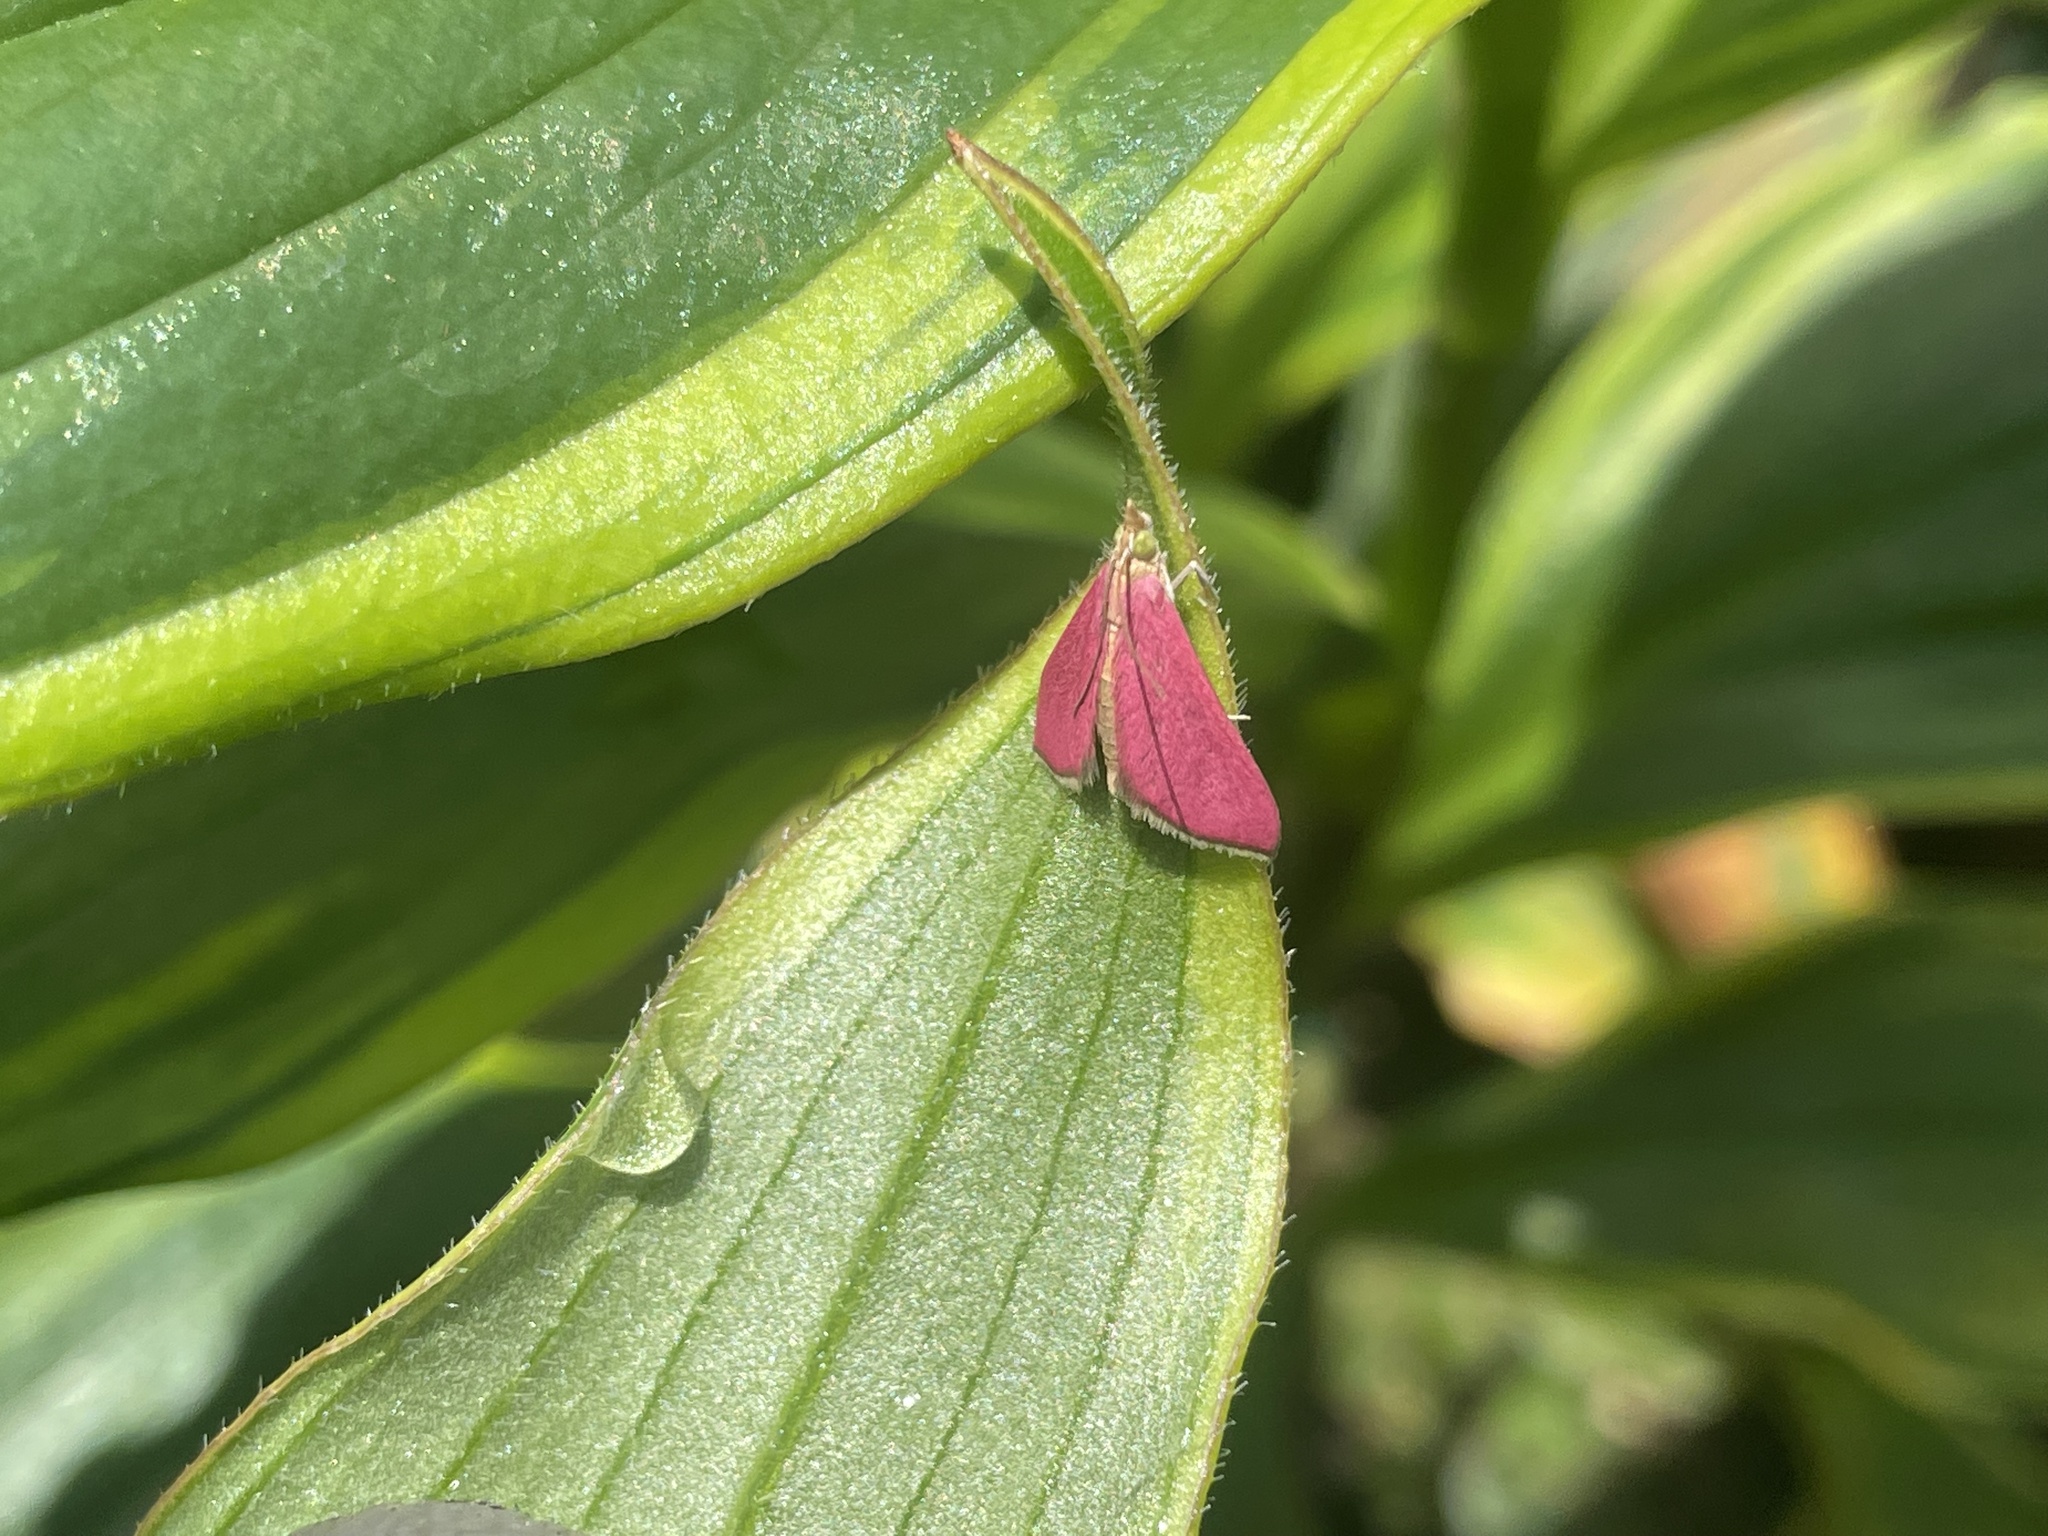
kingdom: Animalia
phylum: Arthropoda
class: Insecta
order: Lepidoptera
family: Crambidae
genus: Pyrausta
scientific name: Pyrausta inornatalis
